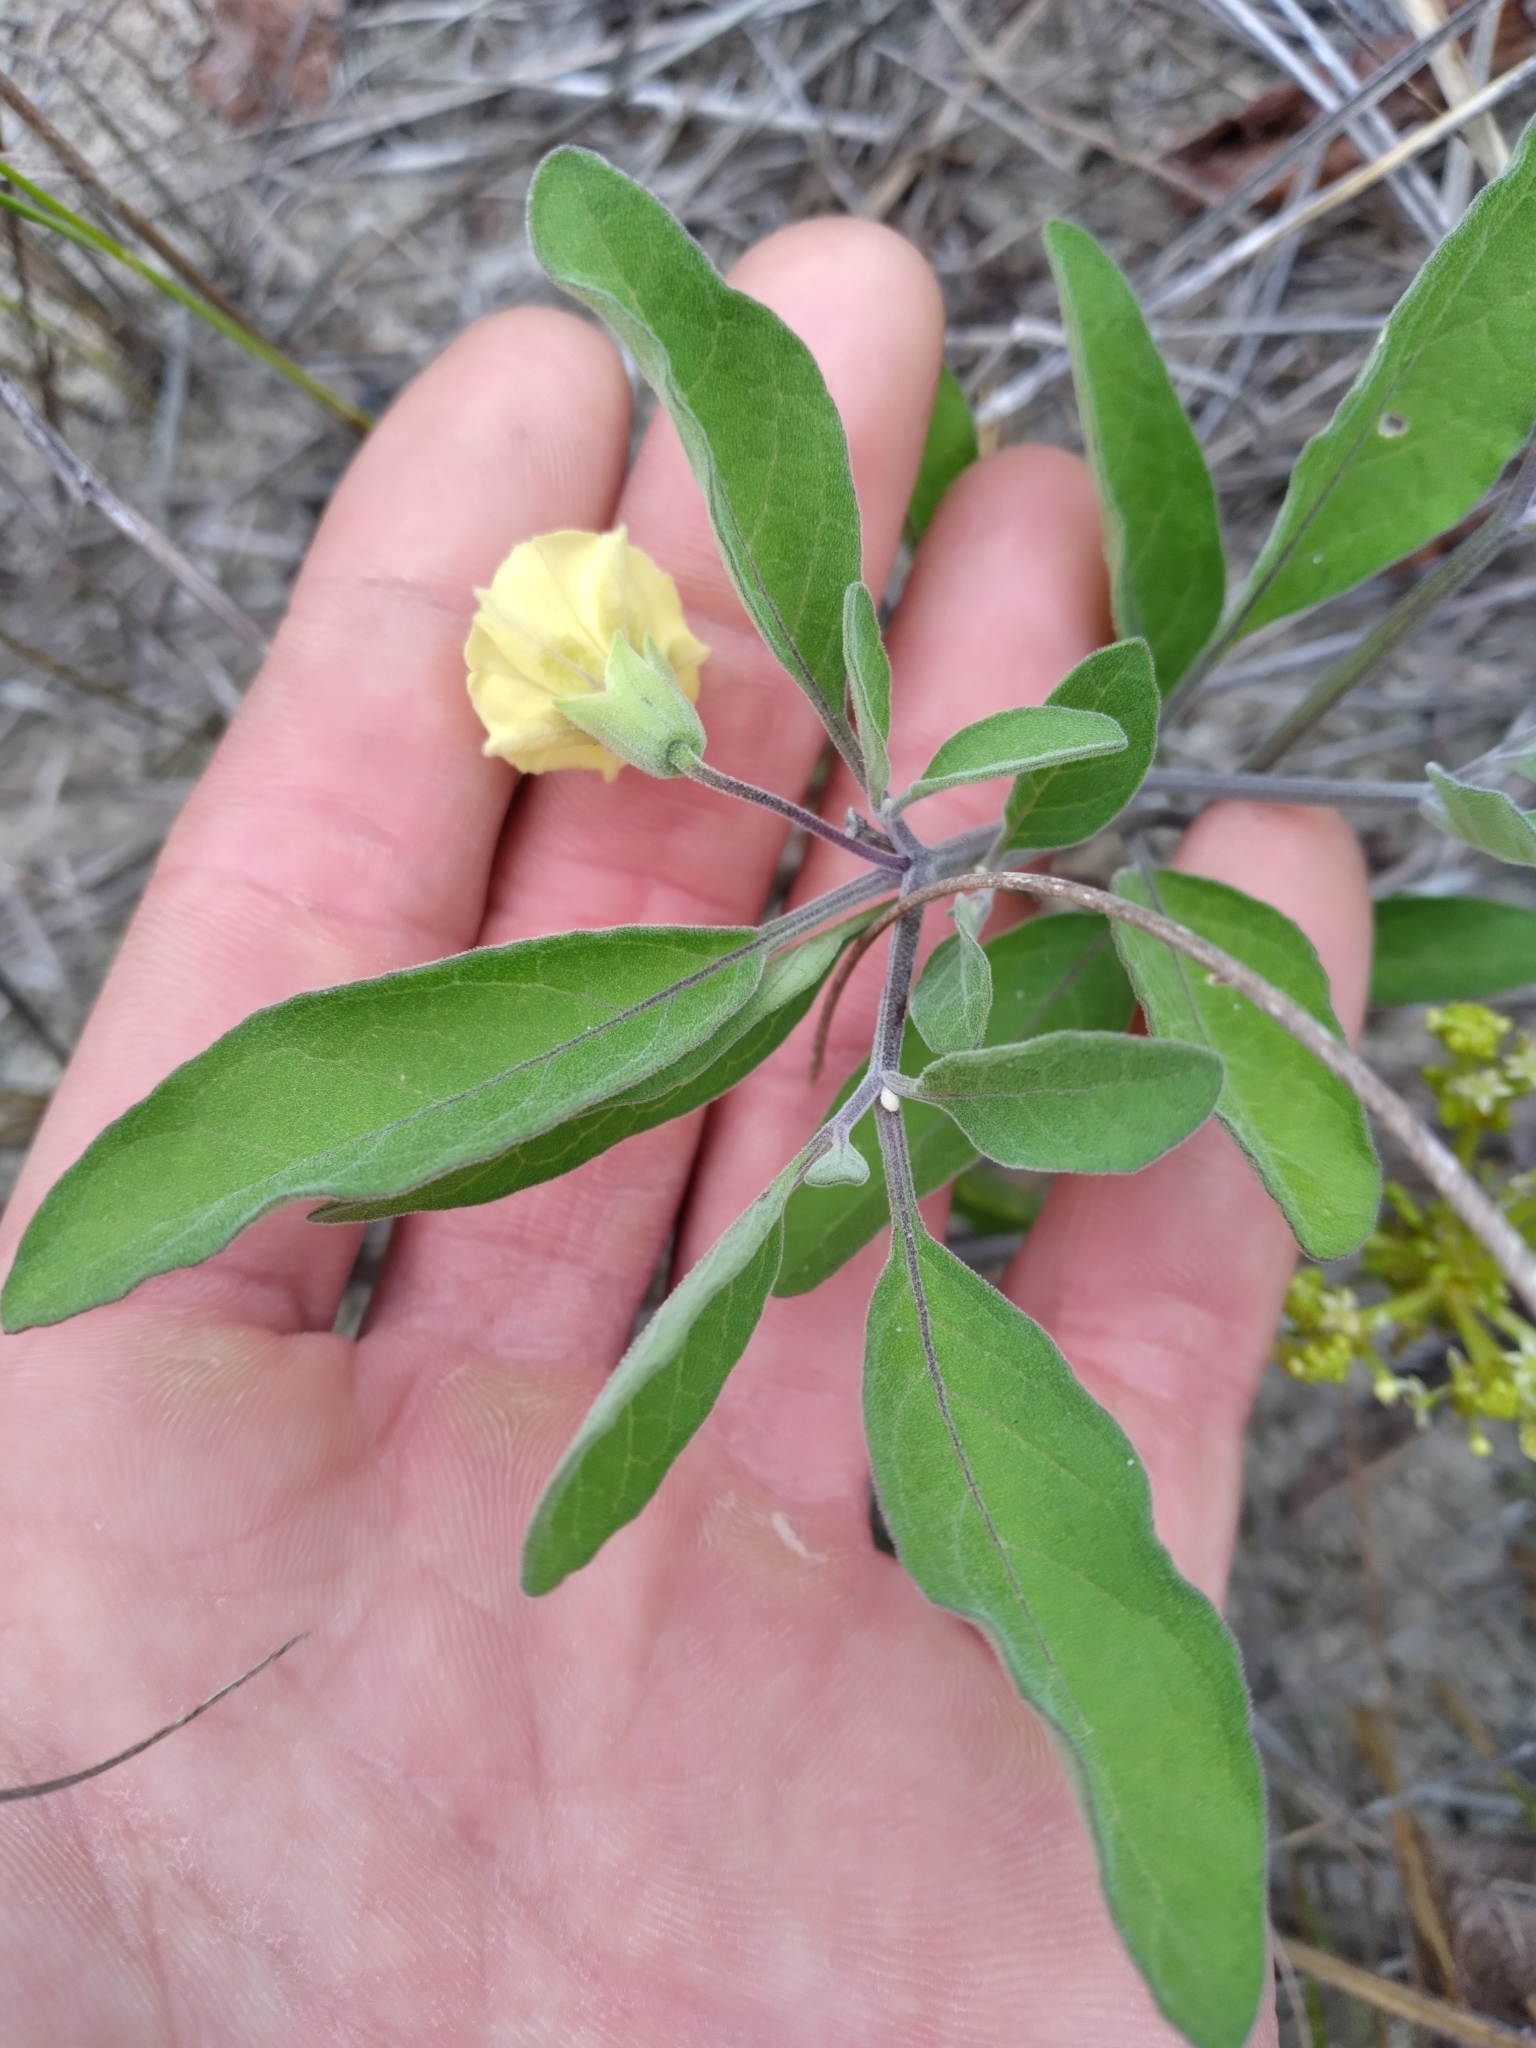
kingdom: Plantae
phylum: Tracheophyta
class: Magnoliopsida
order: Solanales
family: Solanaceae
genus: Physalis
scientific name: Physalis walteri
